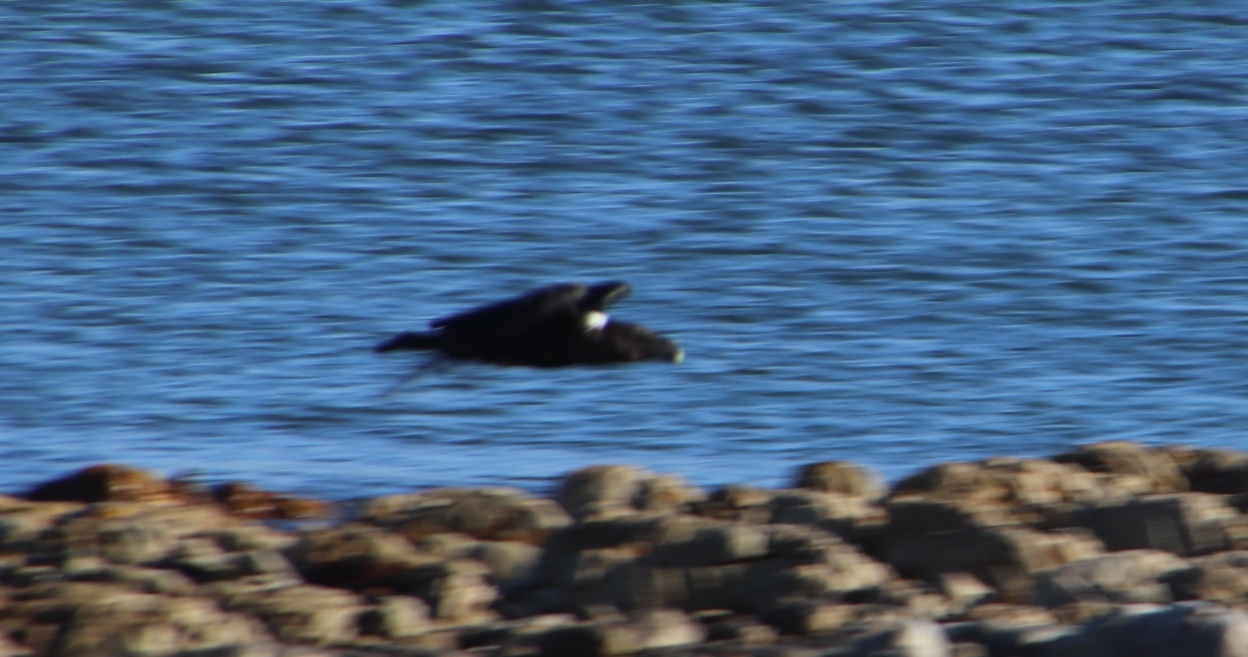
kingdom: Animalia
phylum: Chordata
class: Aves
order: Passeriformes
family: Corvidae
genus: Corvus
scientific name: Corvus albicollis
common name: White-necked raven
